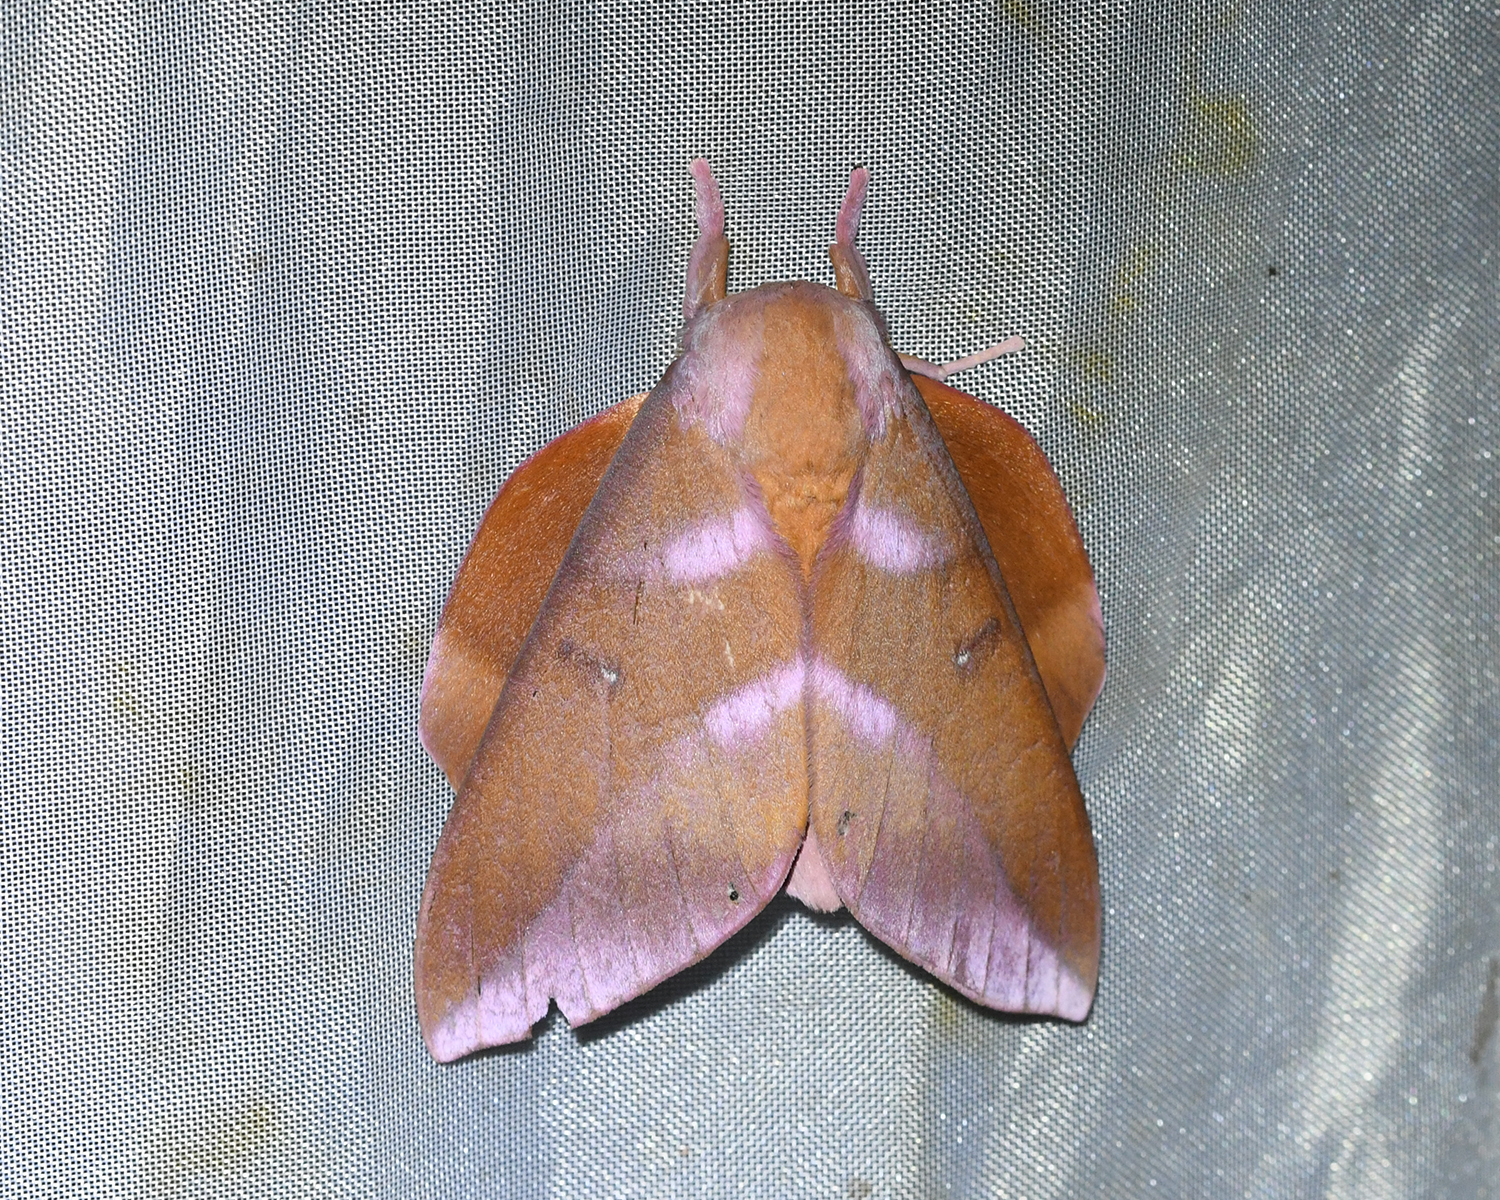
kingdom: Animalia
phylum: Arthropoda
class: Insecta
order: Lepidoptera
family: Saturniidae
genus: Othorene
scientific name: Othorene purpurascens
